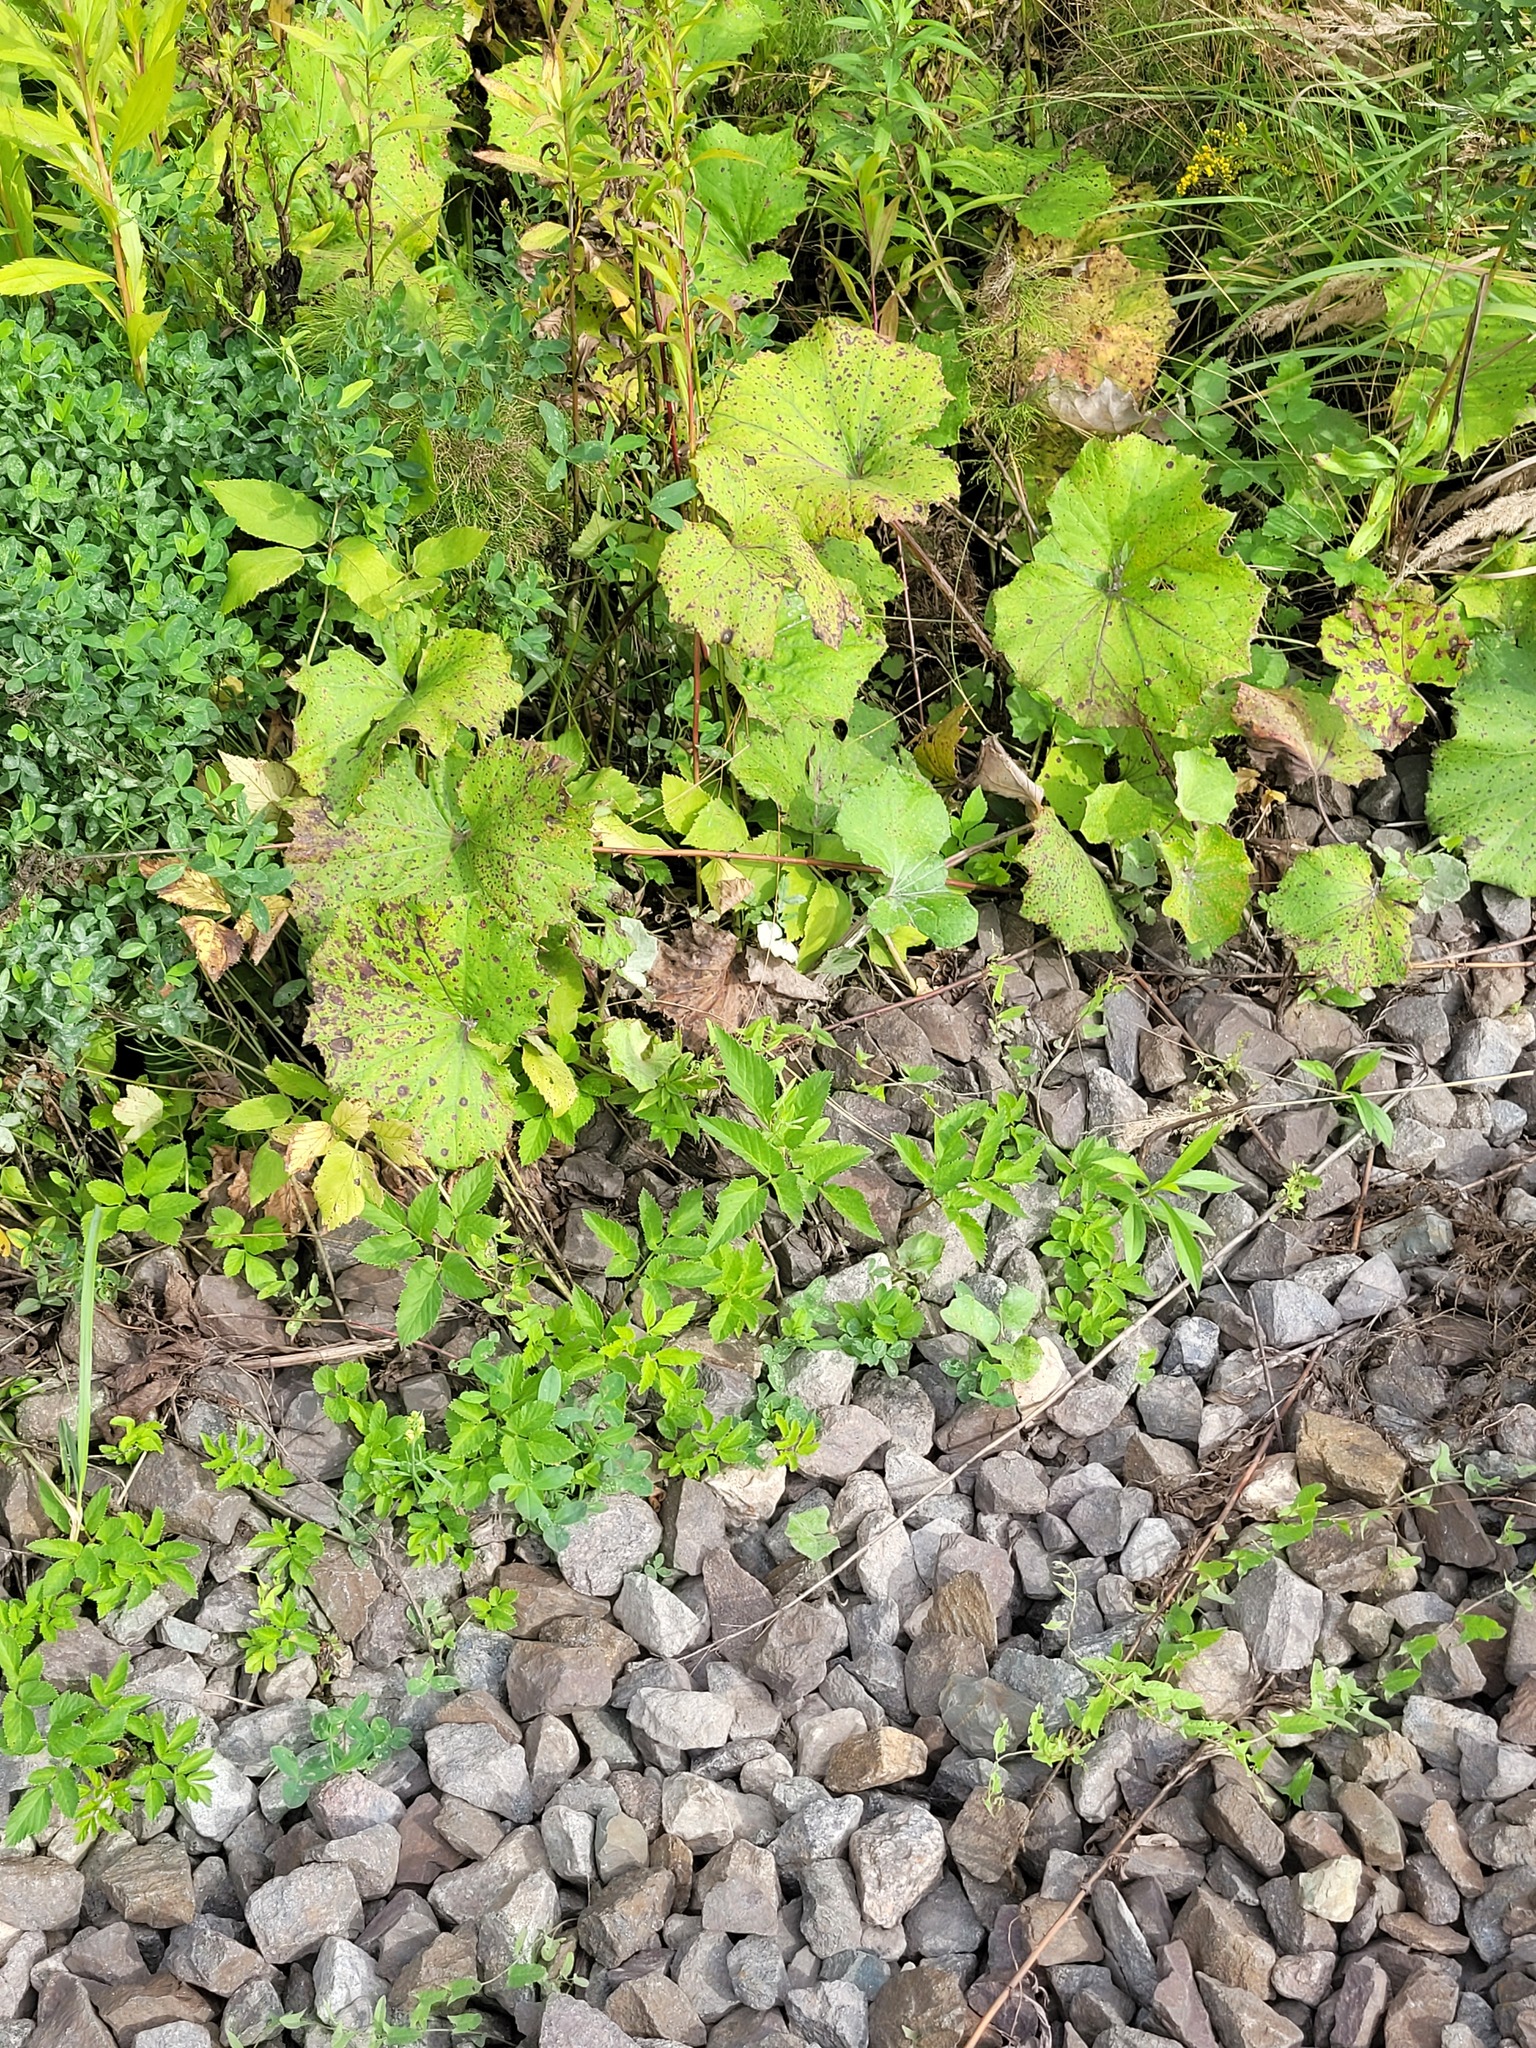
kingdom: Plantae
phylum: Tracheophyta
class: Magnoliopsida
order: Apiales
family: Apiaceae
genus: Aegopodium
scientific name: Aegopodium podagraria
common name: Ground-elder
